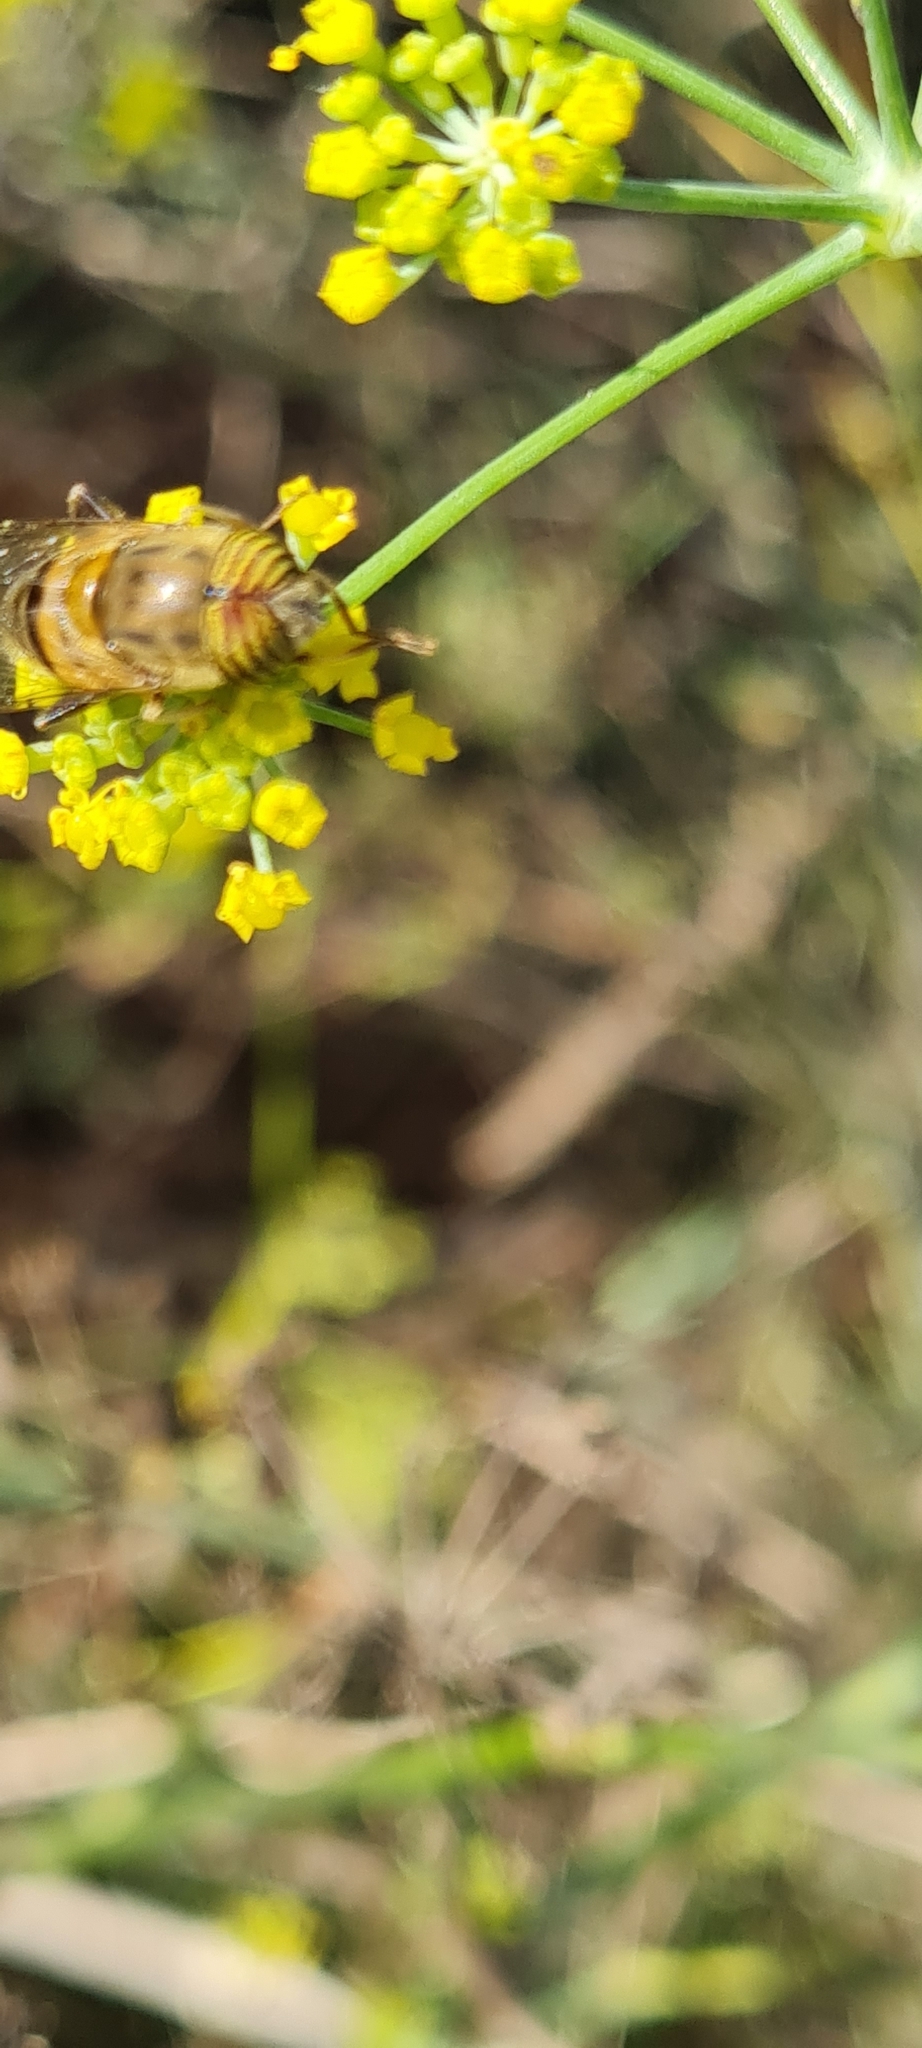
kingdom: Animalia
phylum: Arthropoda
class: Insecta
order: Diptera
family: Syrphidae
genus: Eristalinus
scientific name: Eristalinus taeniops
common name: Syrphid fly
